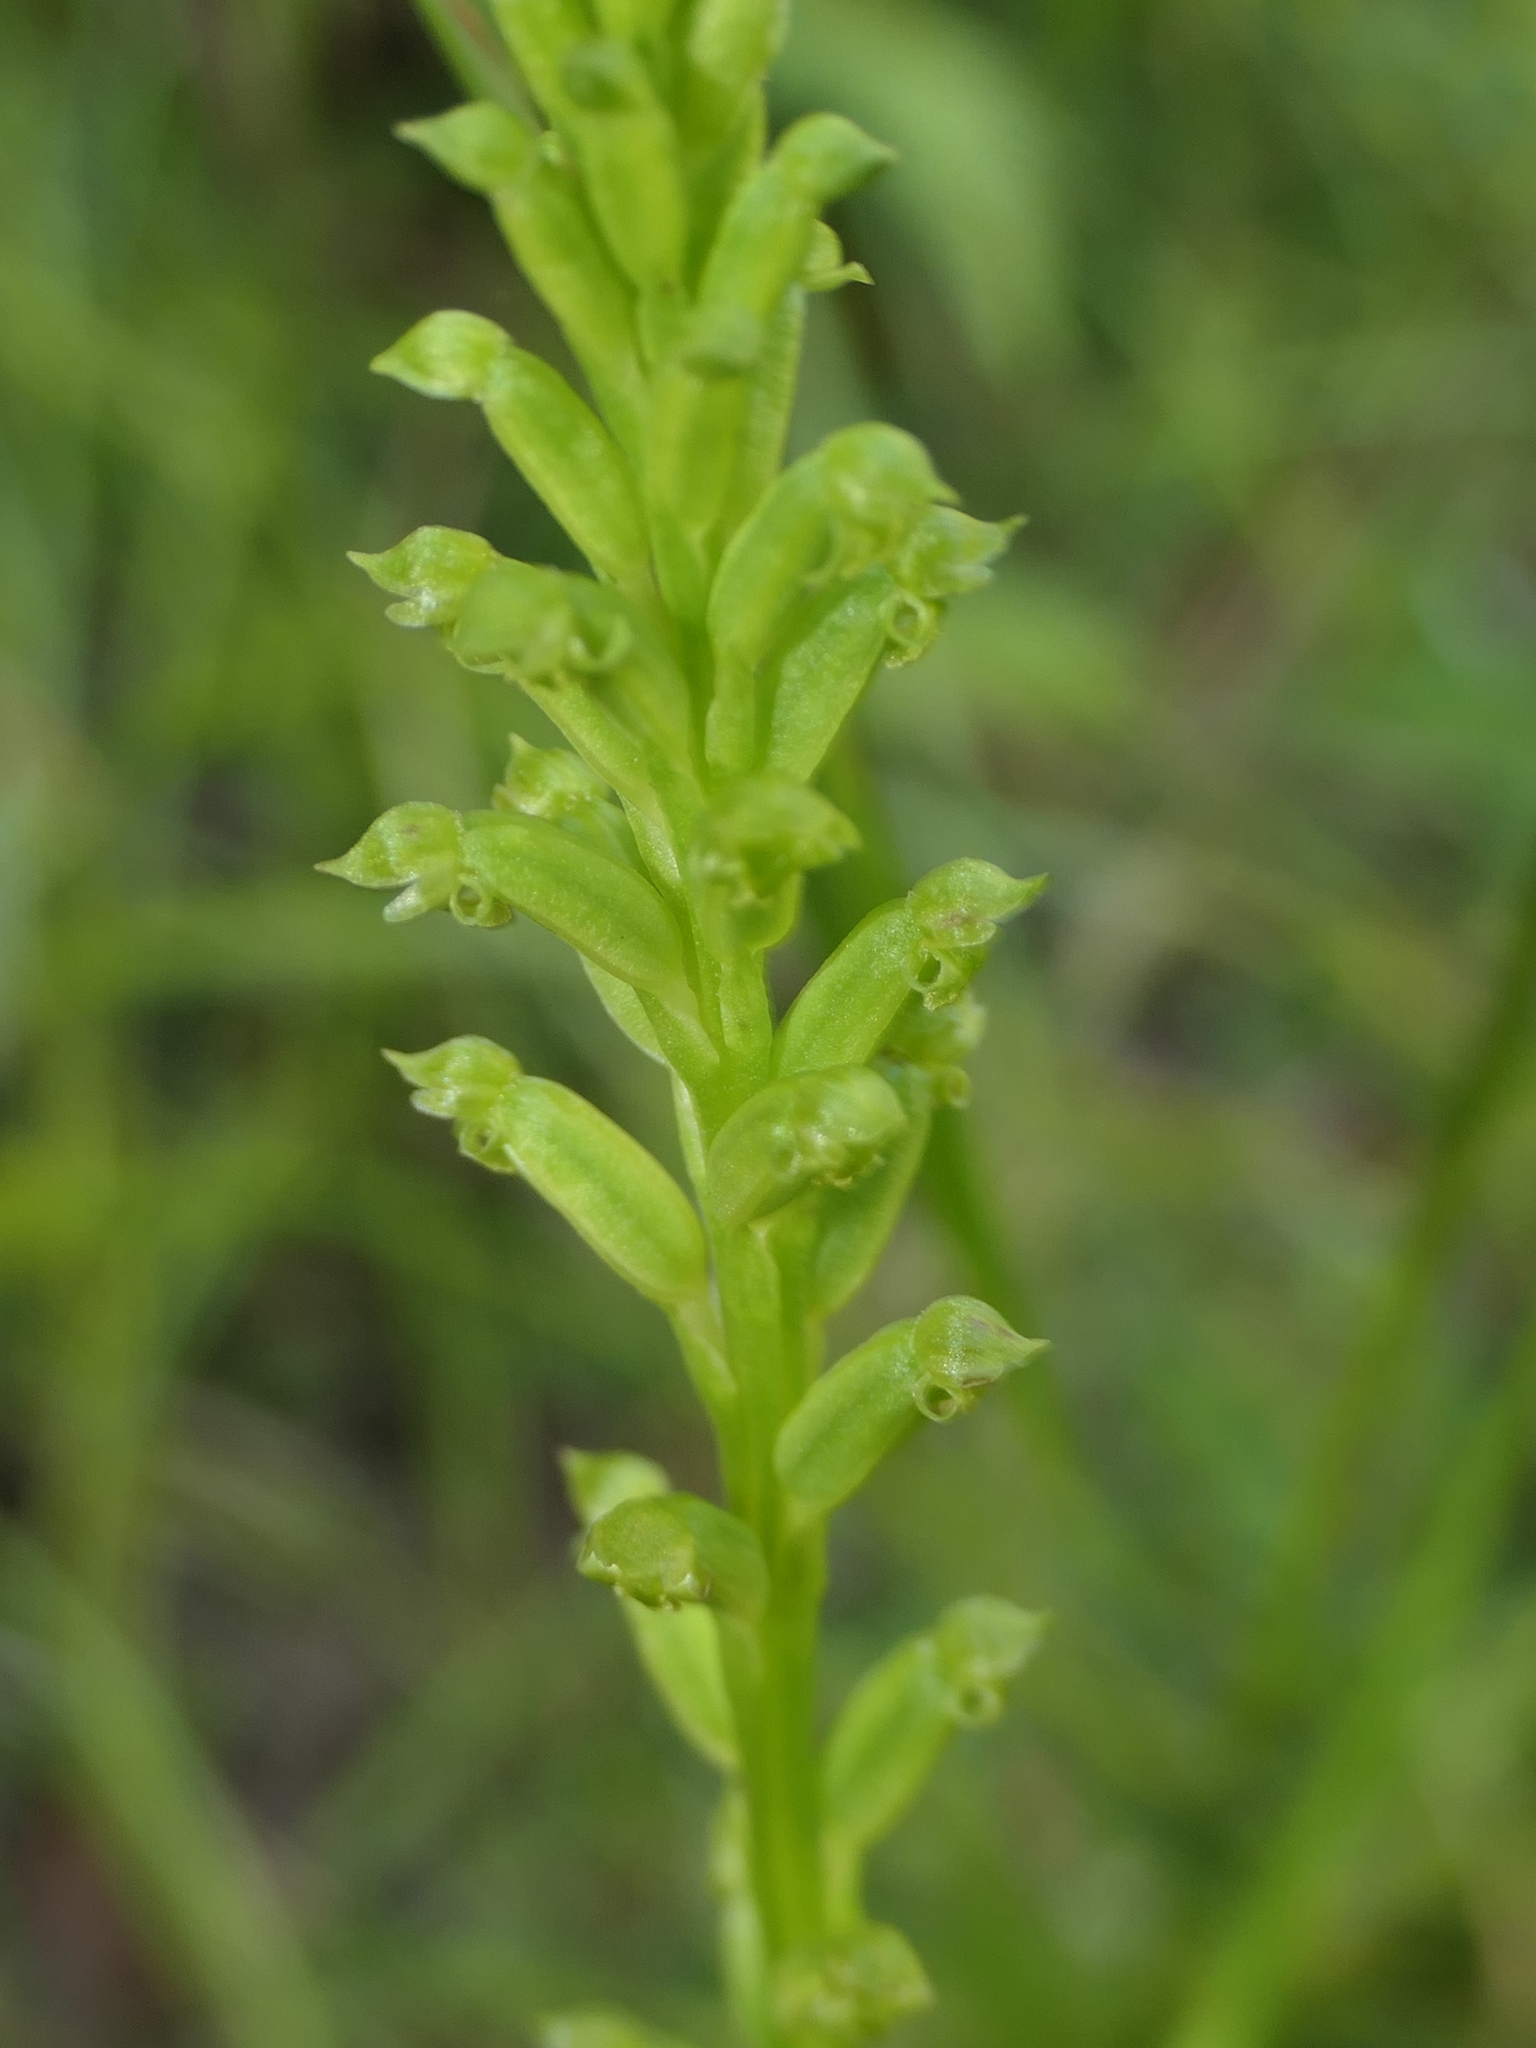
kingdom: Plantae
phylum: Tracheophyta
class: Liliopsida
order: Asparagales
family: Orchidaceae
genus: Microtis
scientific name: Microtis unifolia
